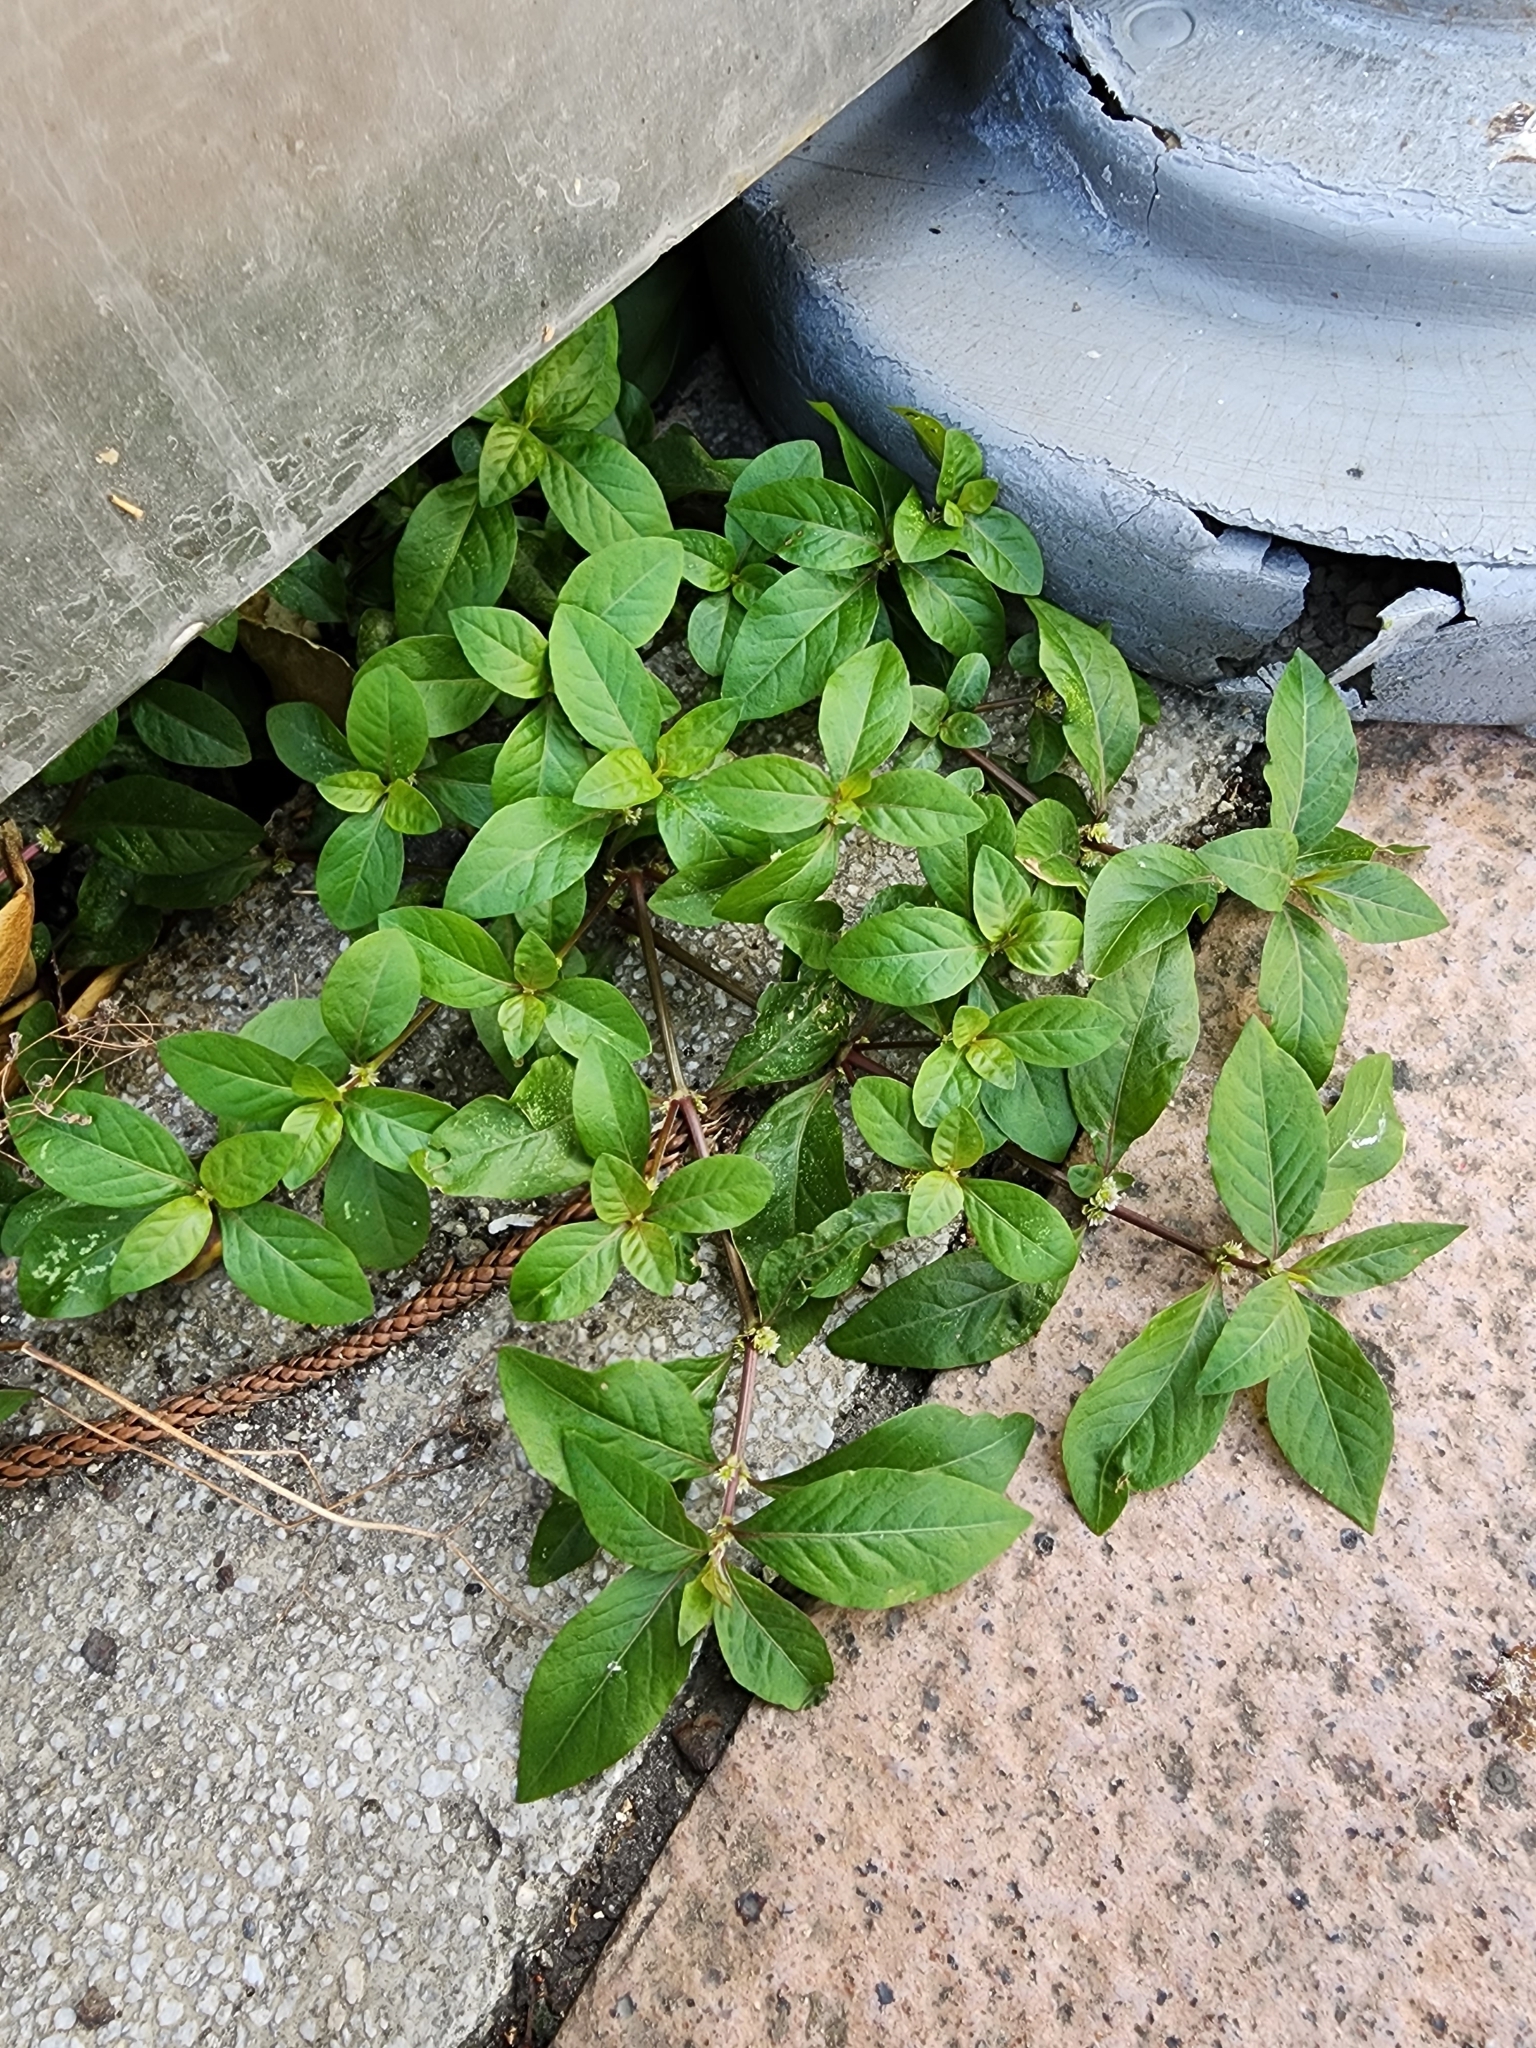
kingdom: Plantae
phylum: Tracheophyta
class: Magnoliopsida
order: Caryophyllales
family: Amaranthaceae
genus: Alternanthera
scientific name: Alternanthera ficoidea
